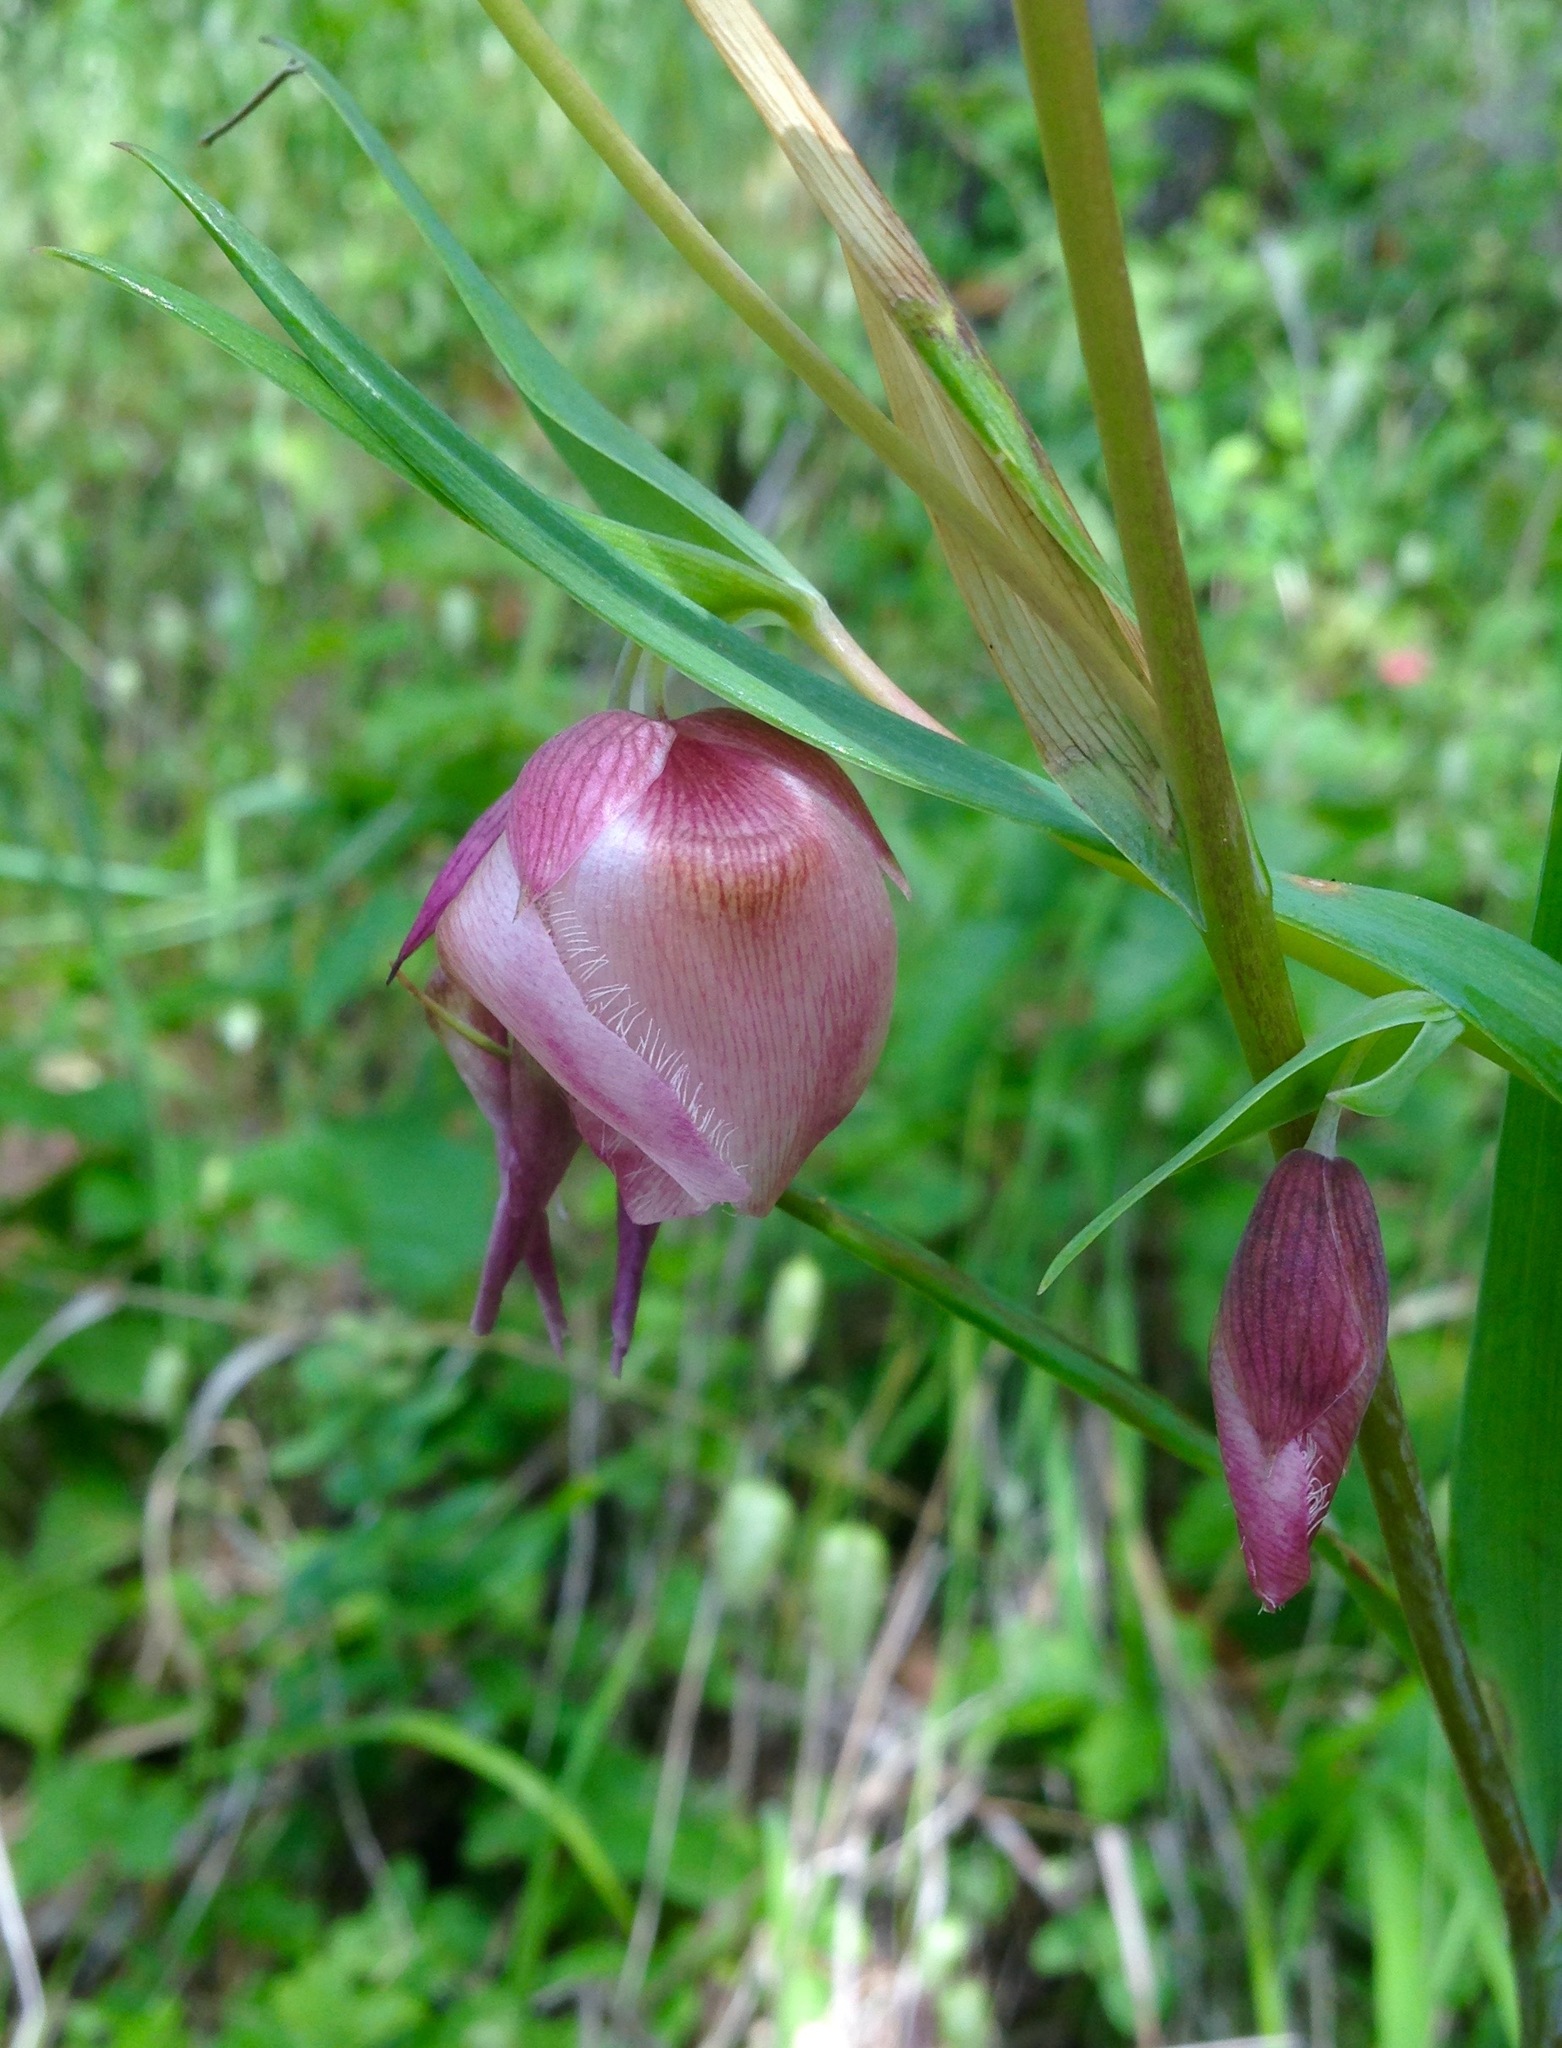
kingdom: Plantae
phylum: Tracheophyta
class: Liliopsida
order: Liliales
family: Liliaceae
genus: Calochortus
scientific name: Calochortus albus
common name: Fairy-lantern
